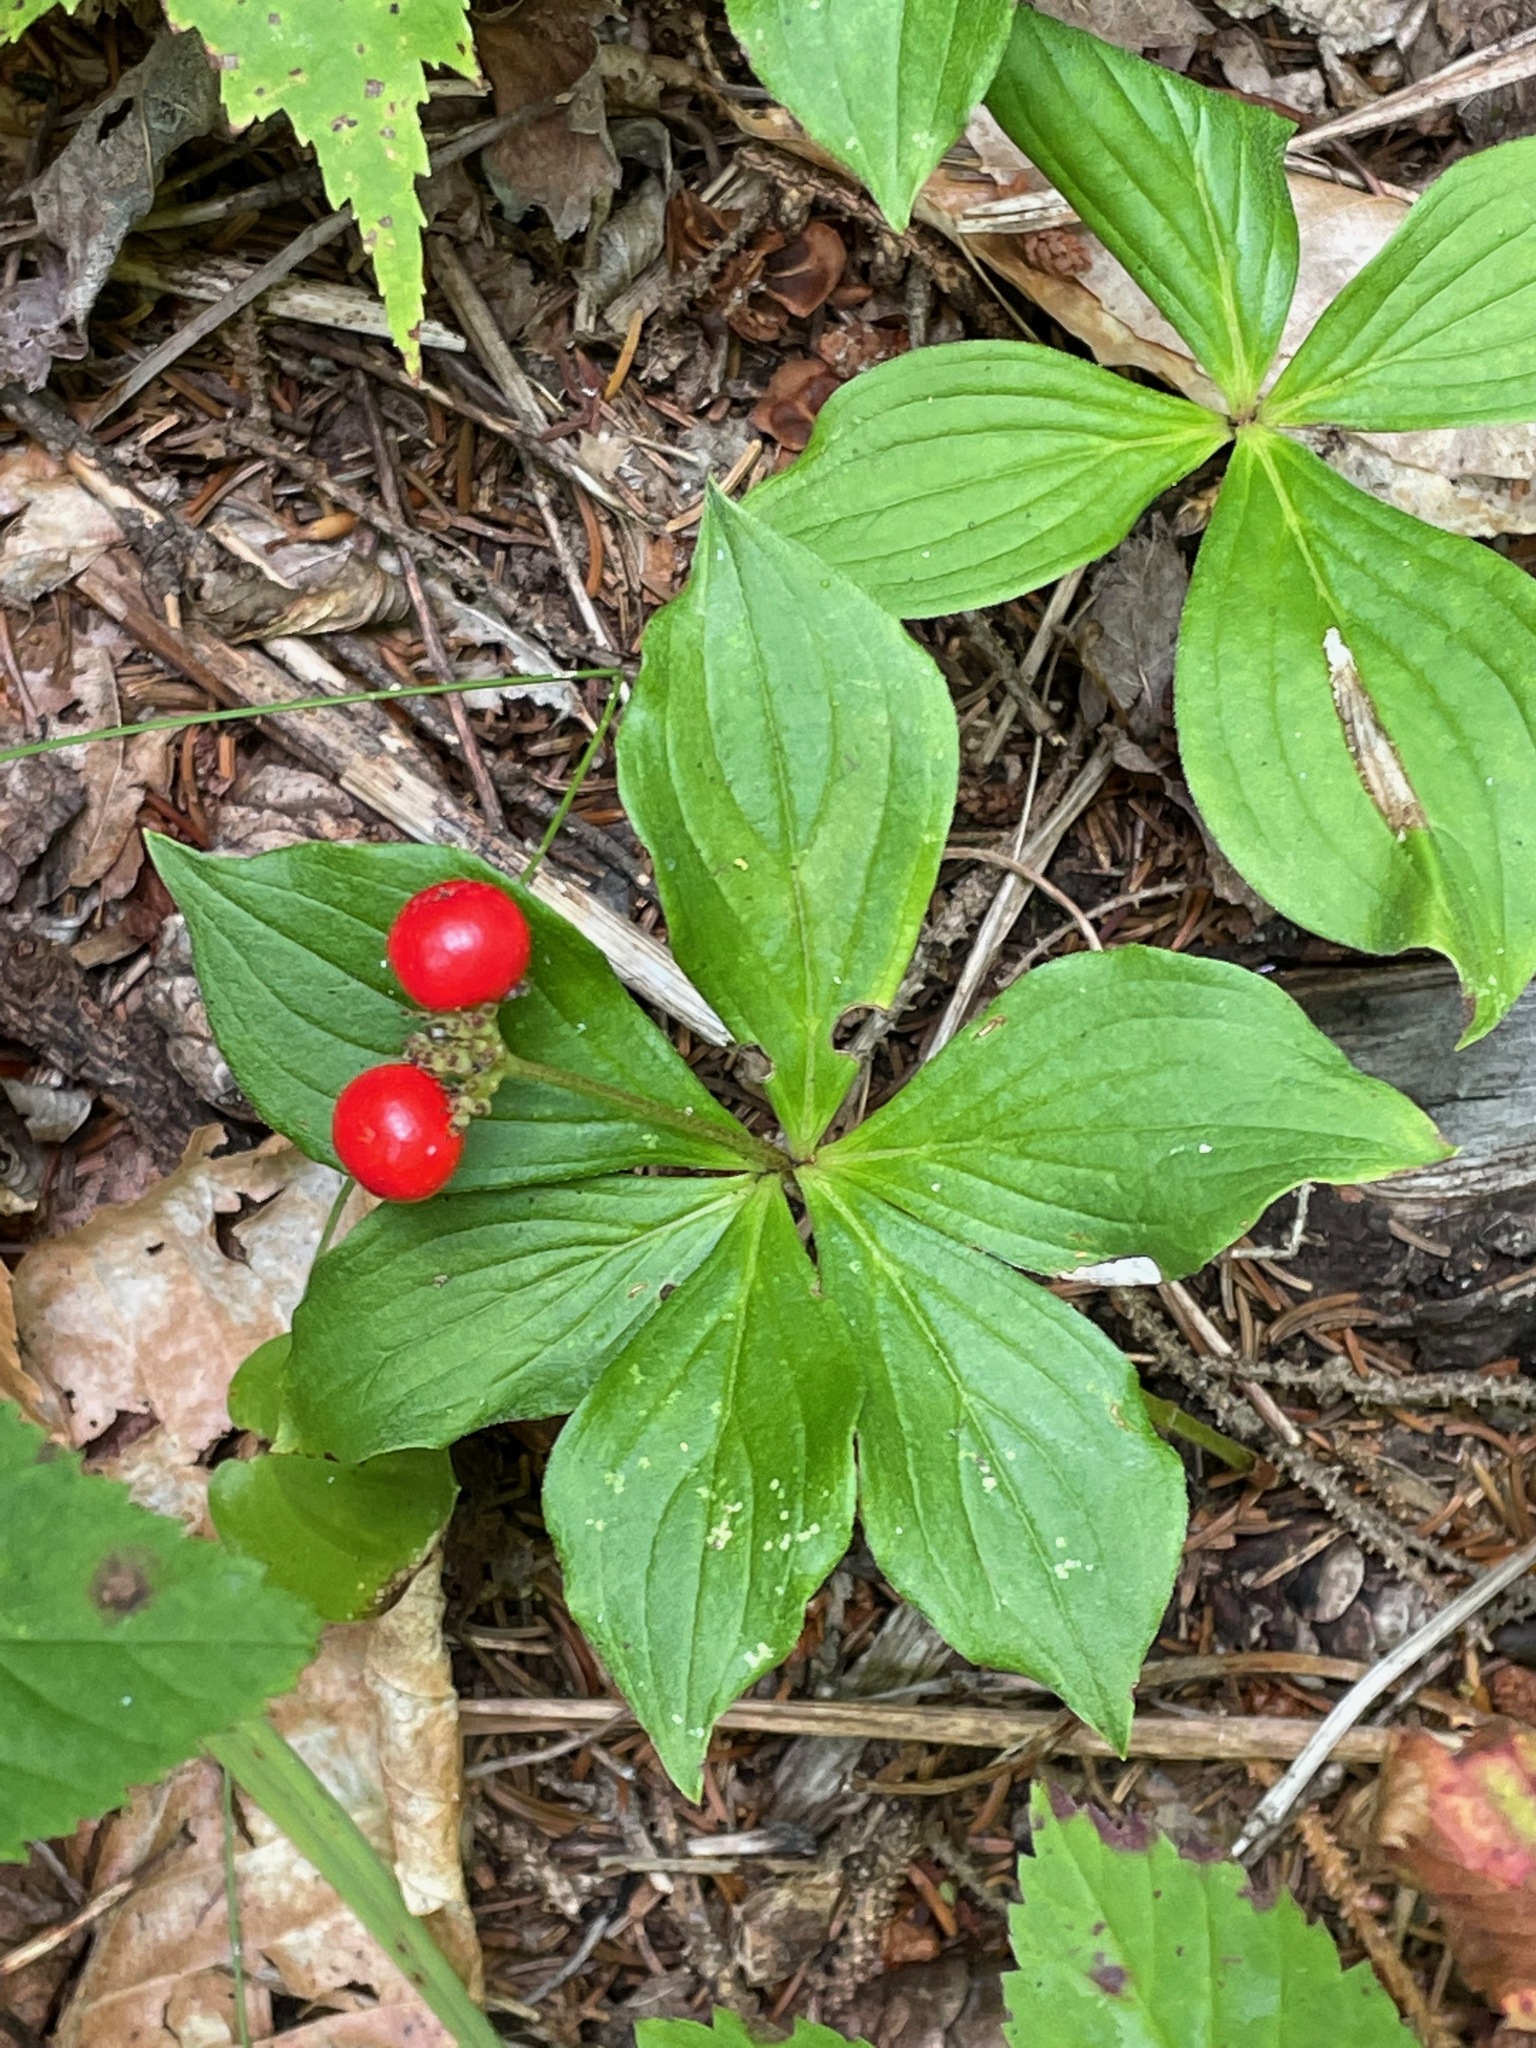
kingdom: Plantae
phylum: Tracheophyta
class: Magnoliopsida
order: Cornales
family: Cornaceae
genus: Cornus
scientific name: Cornus canadensis
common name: Creeping dogwood
